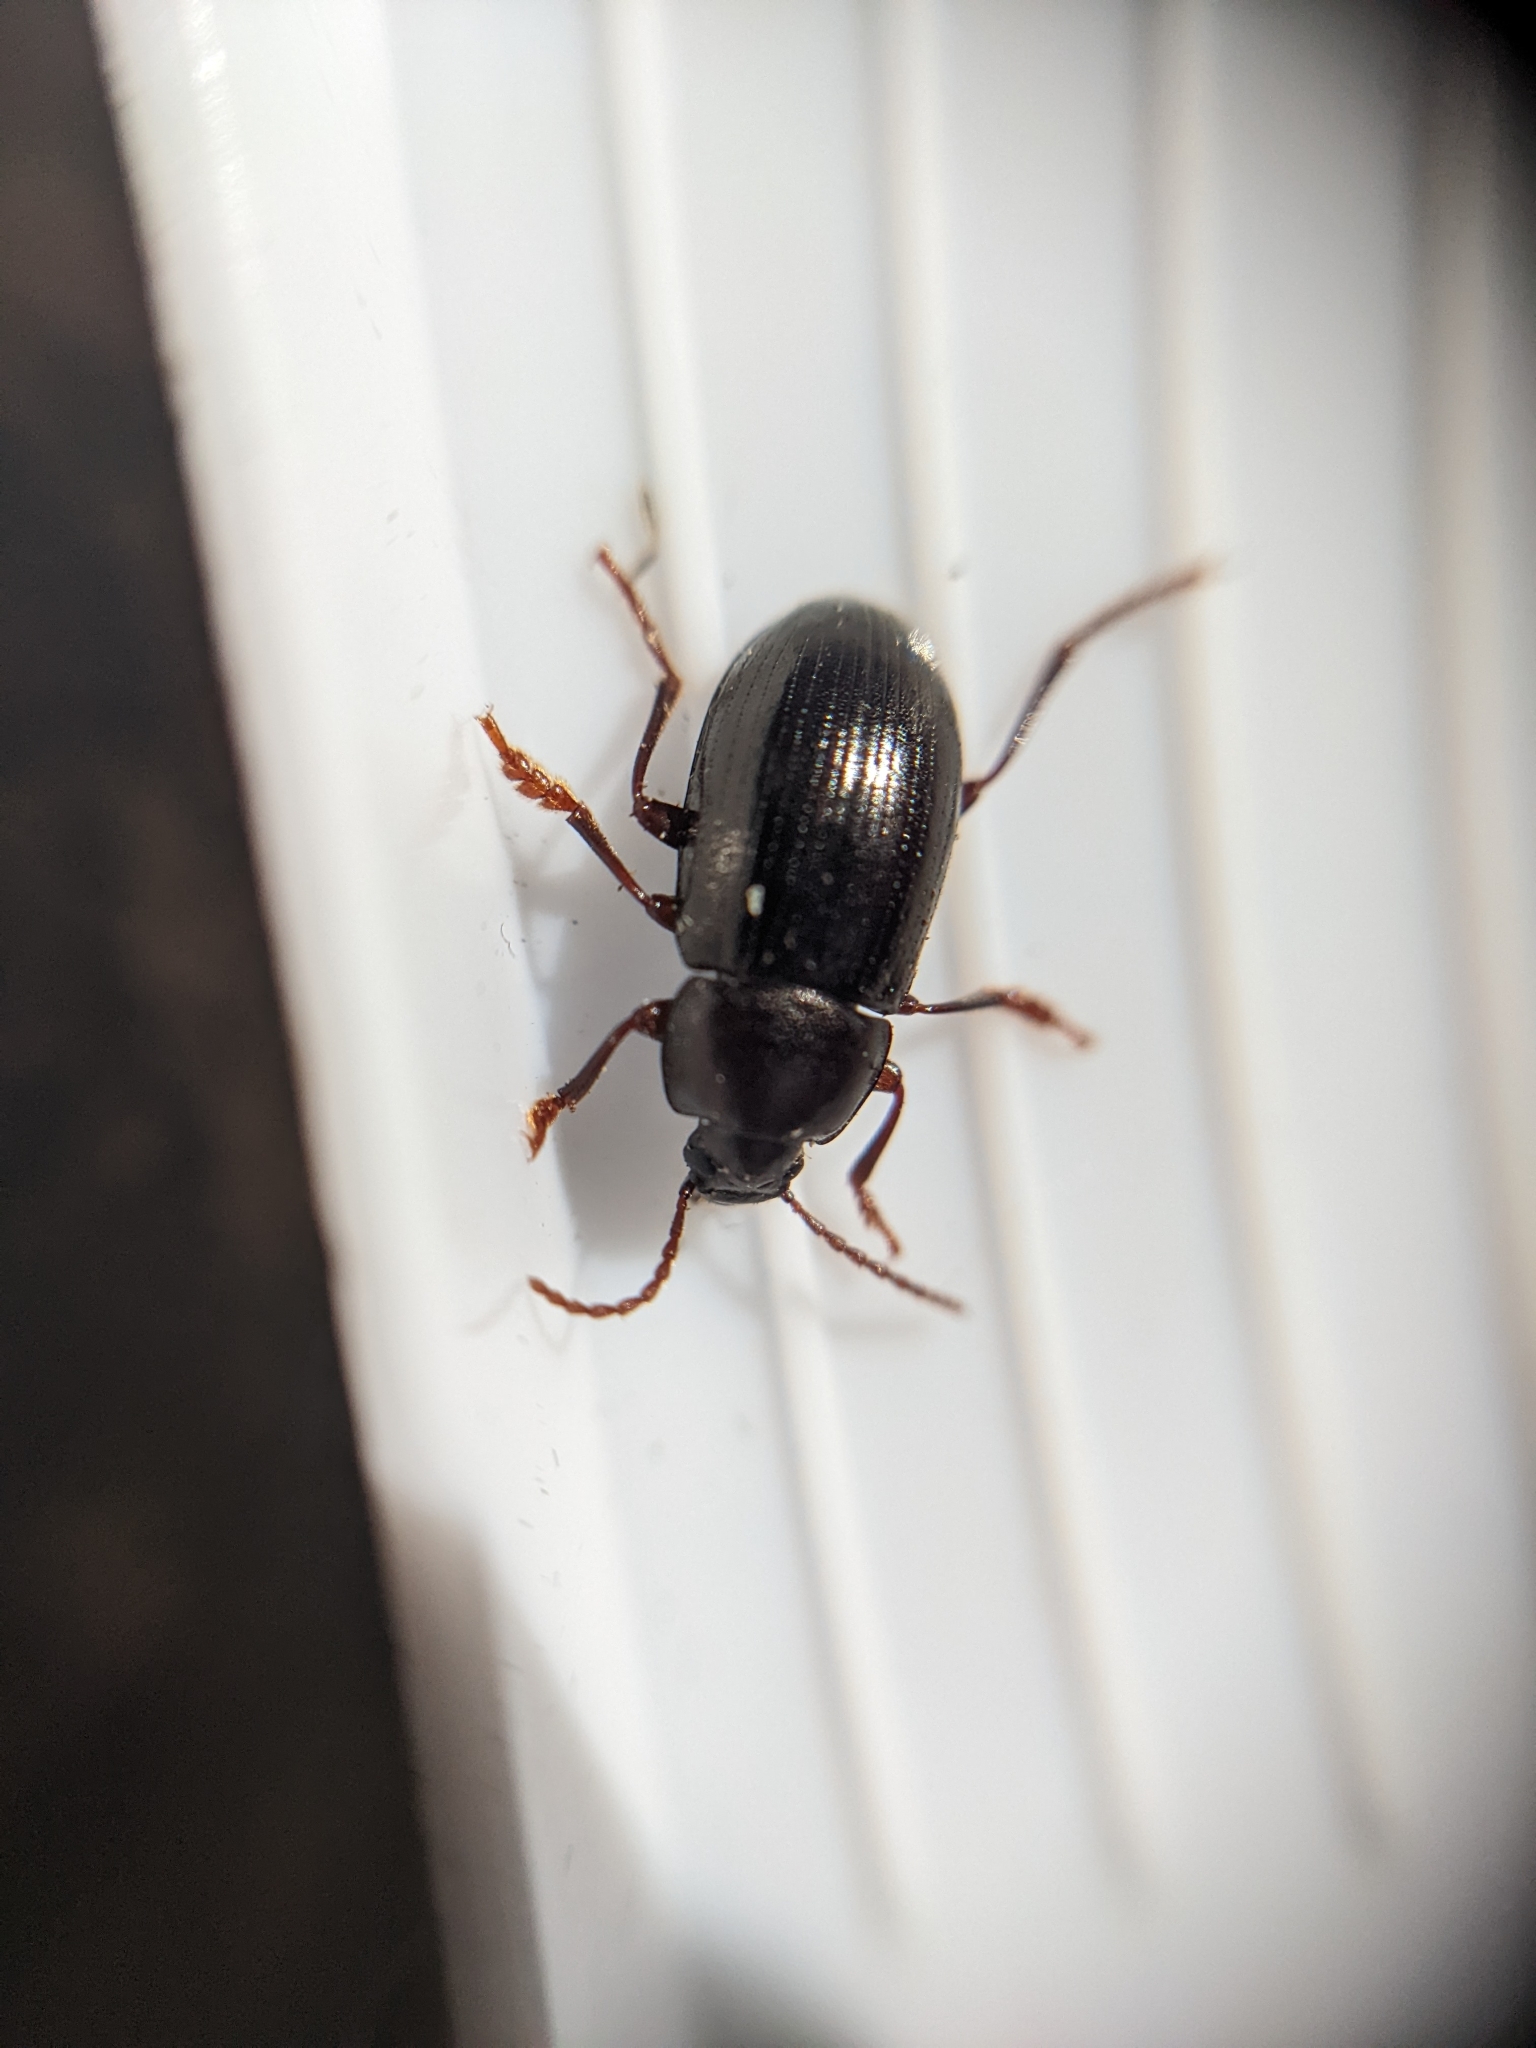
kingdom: Animalia
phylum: Arthropoda
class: Insecta
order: Coleoptera
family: Tenebrionidae
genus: Nalassus
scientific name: Nalassus laevioctostriatus
